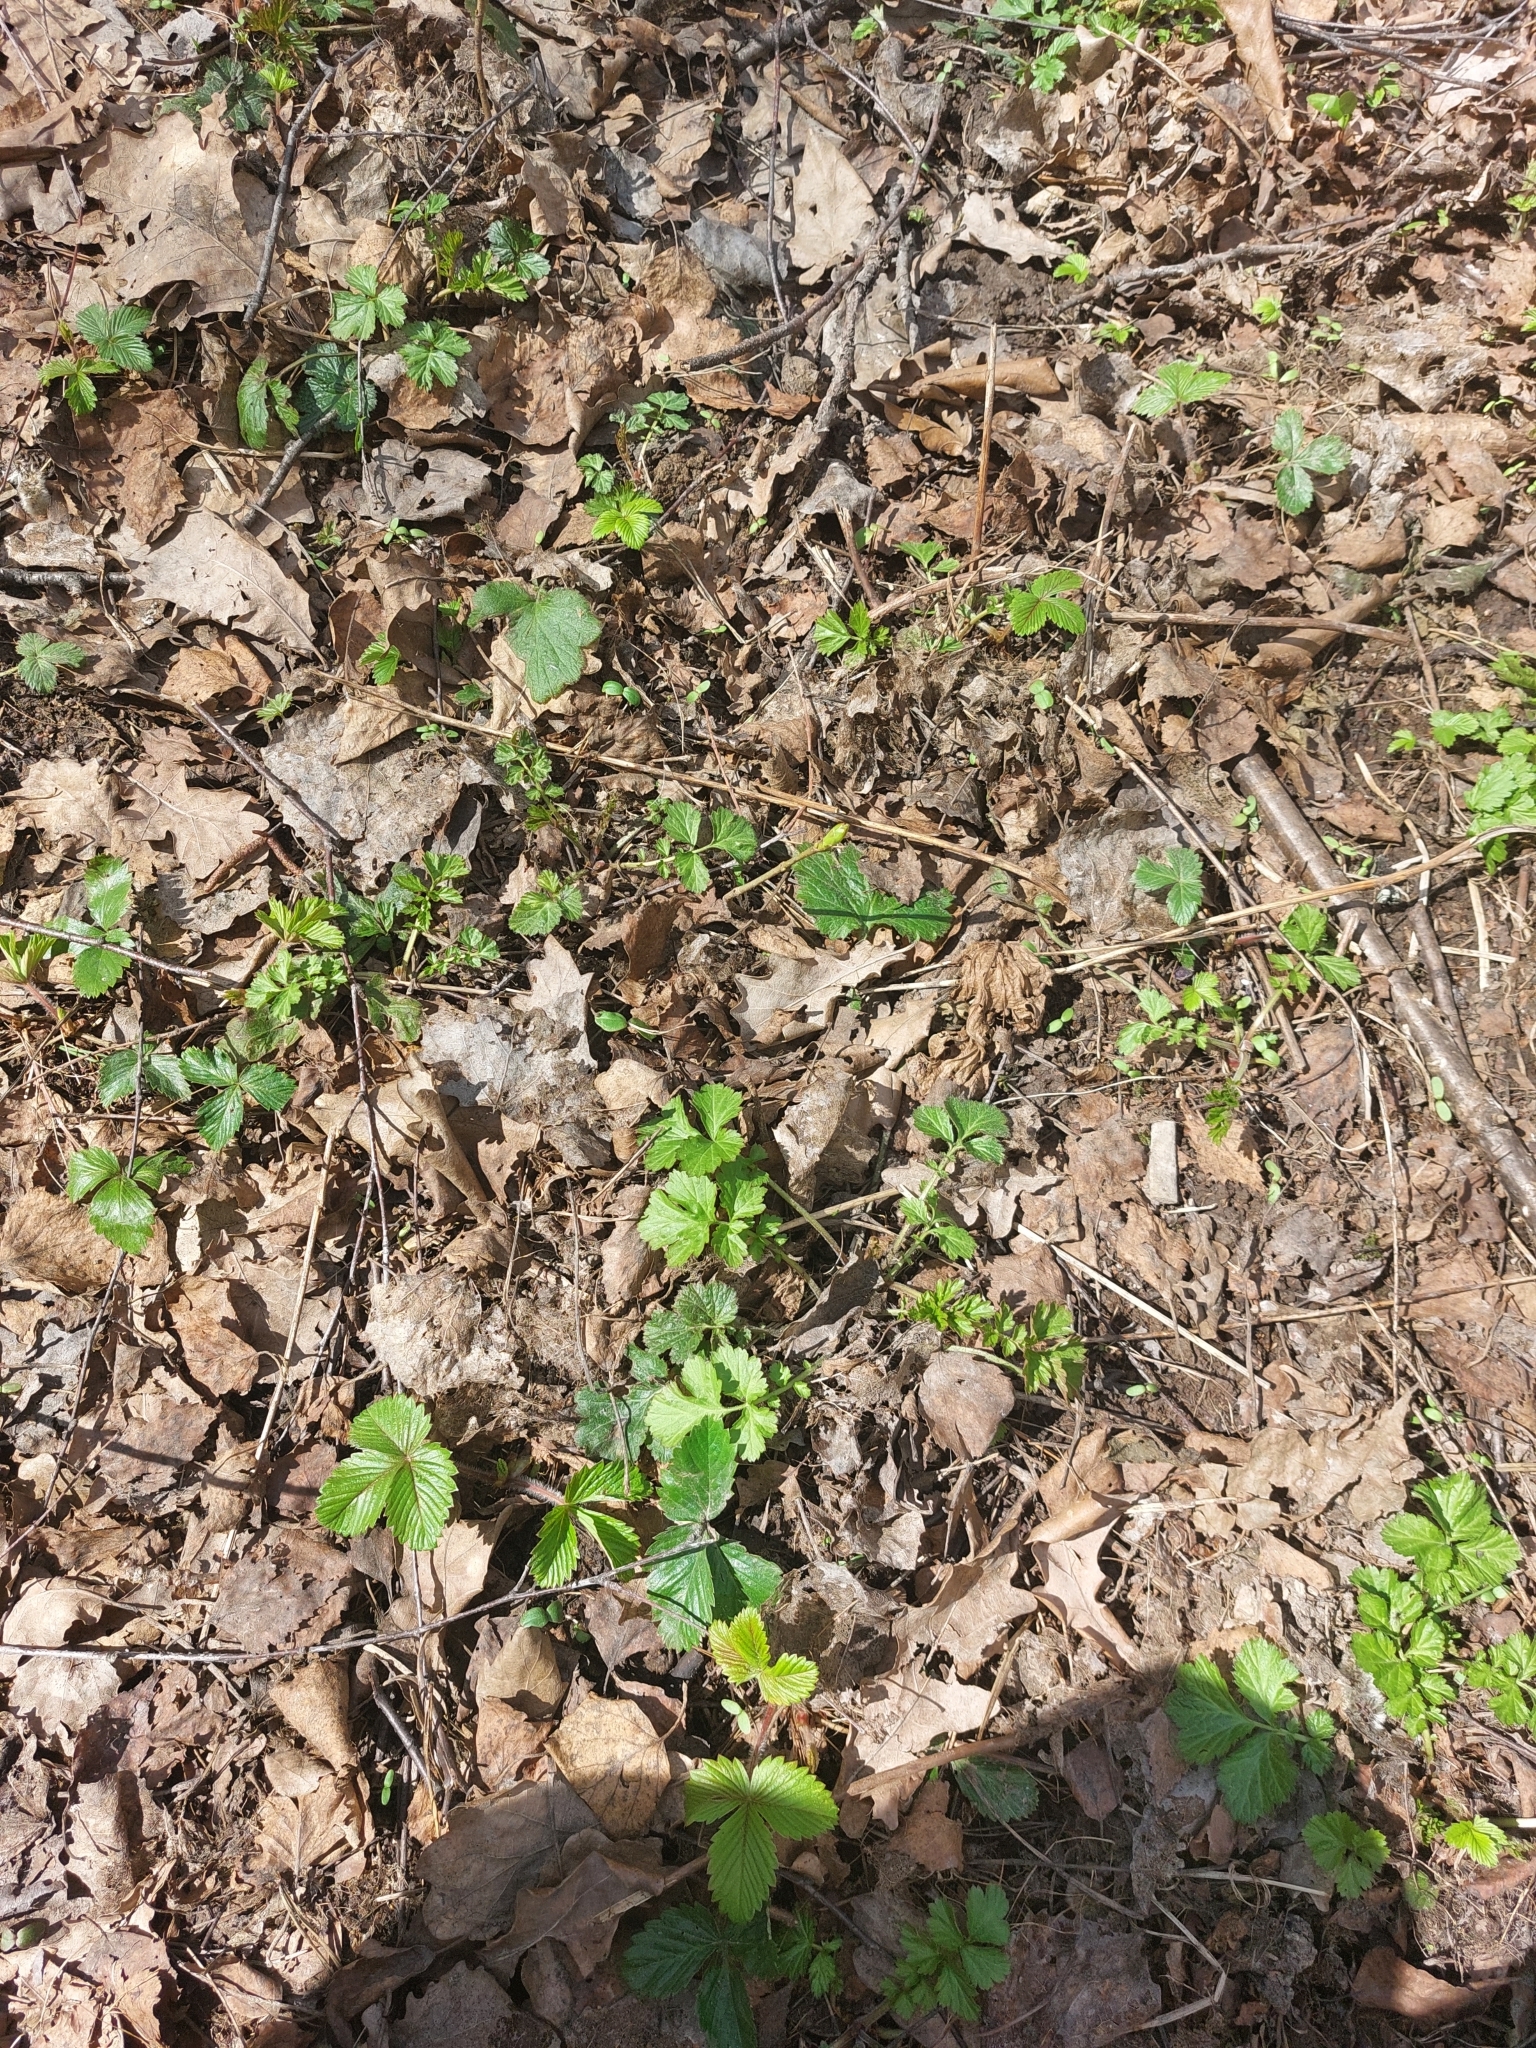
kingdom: Plantae
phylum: Tracheophyta
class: Magnoliopsida
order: Rosales
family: Rosaceae
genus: Fragaria
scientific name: Fragaria vesca
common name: Wild strawberry
